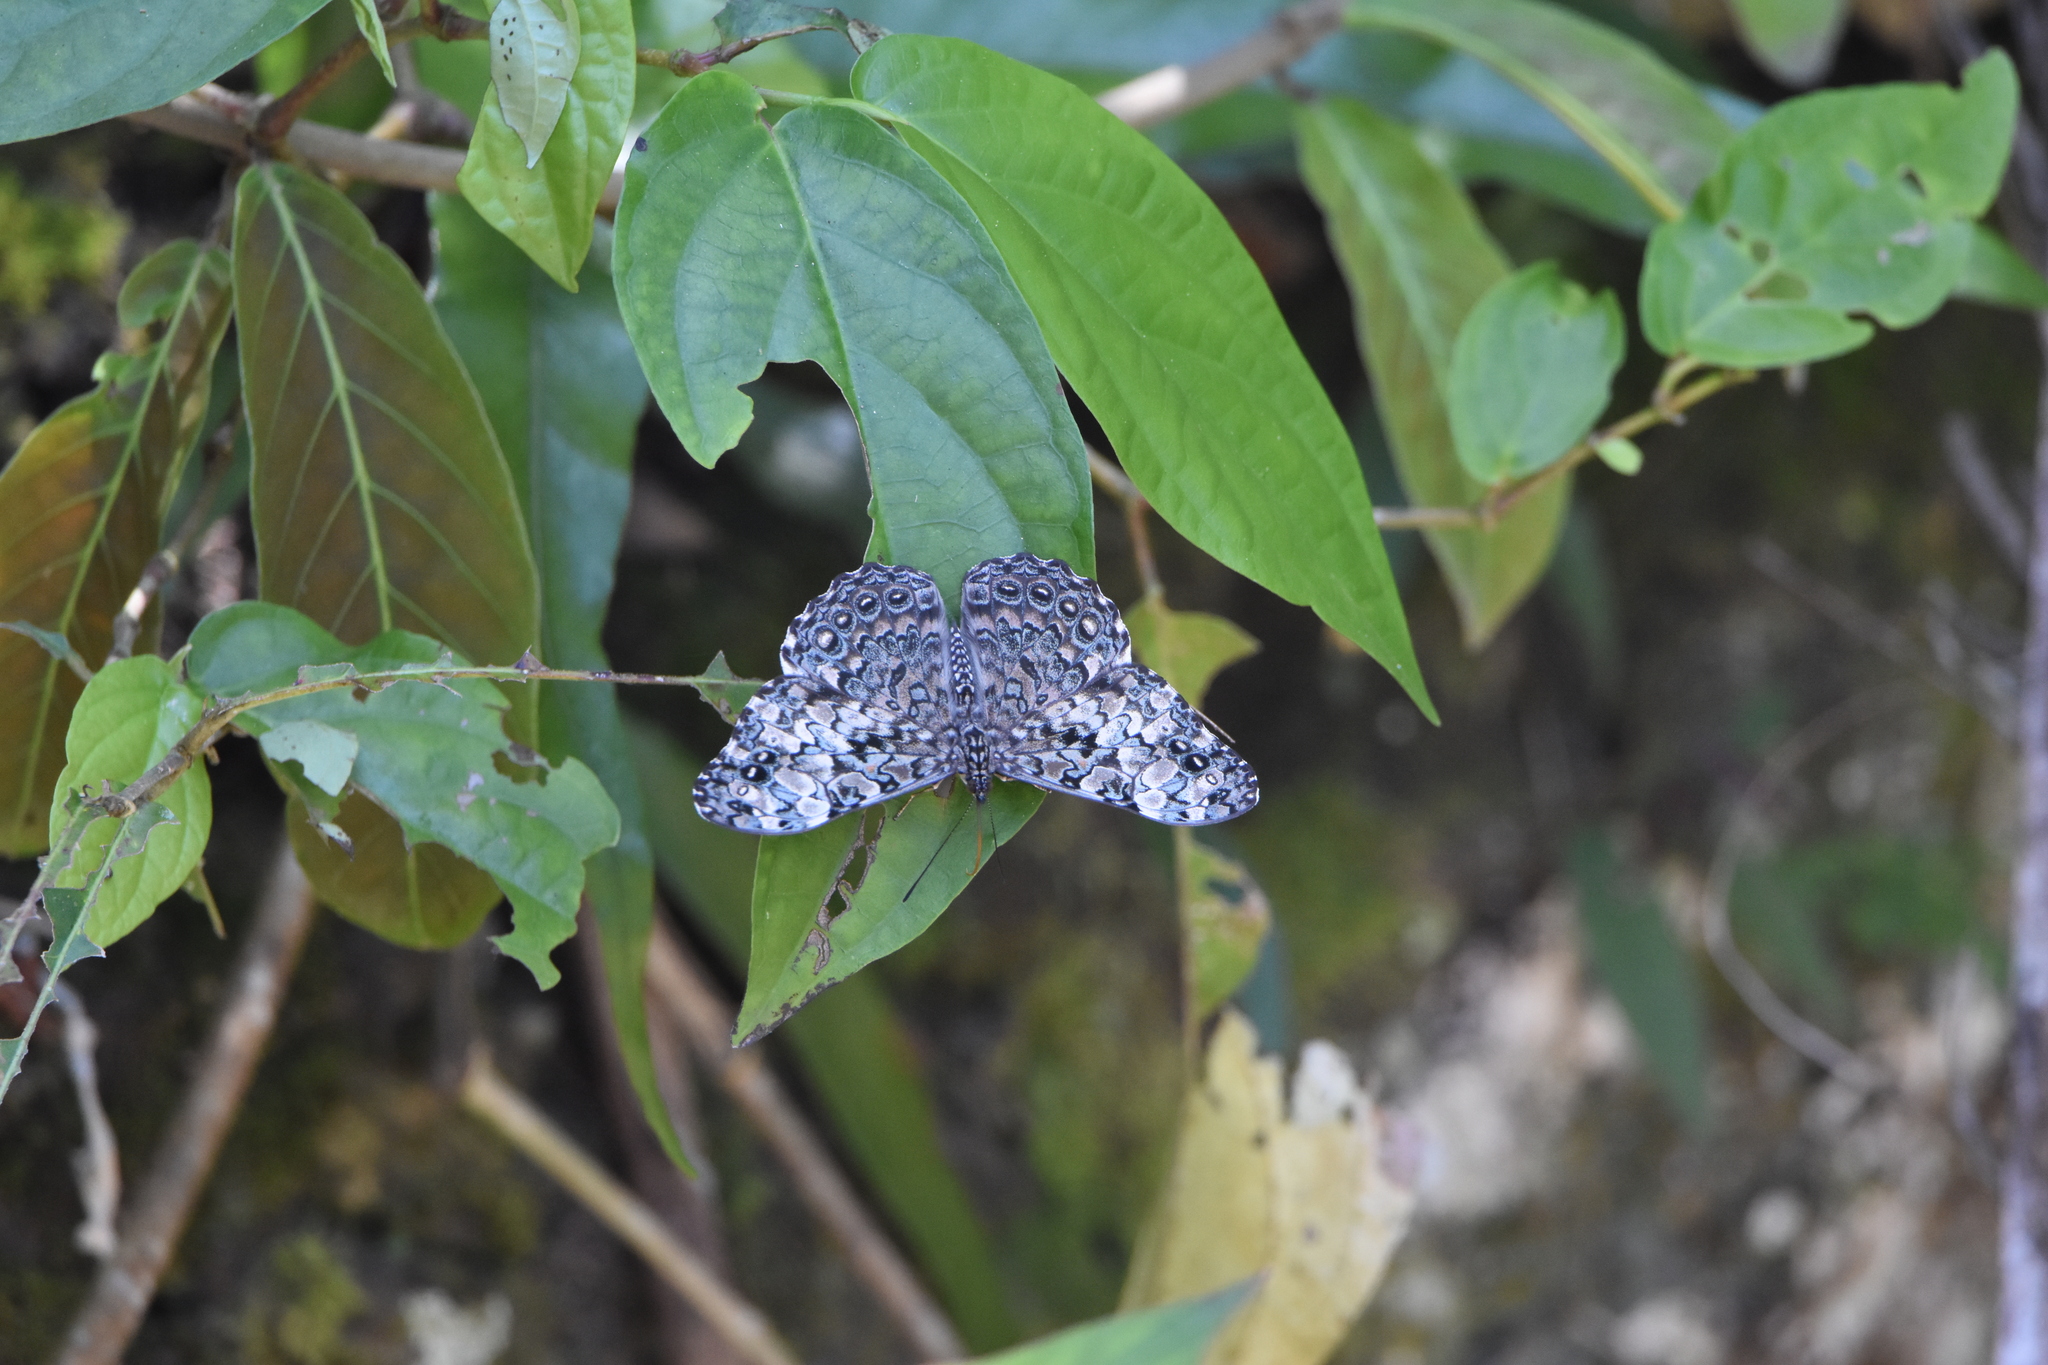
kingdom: Animalia
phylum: Arthropoda
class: Insecta
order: Lepidoptera
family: Nymphalidae
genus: Hamadryas
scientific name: Hamadryas epinome
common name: Epinome cracker
